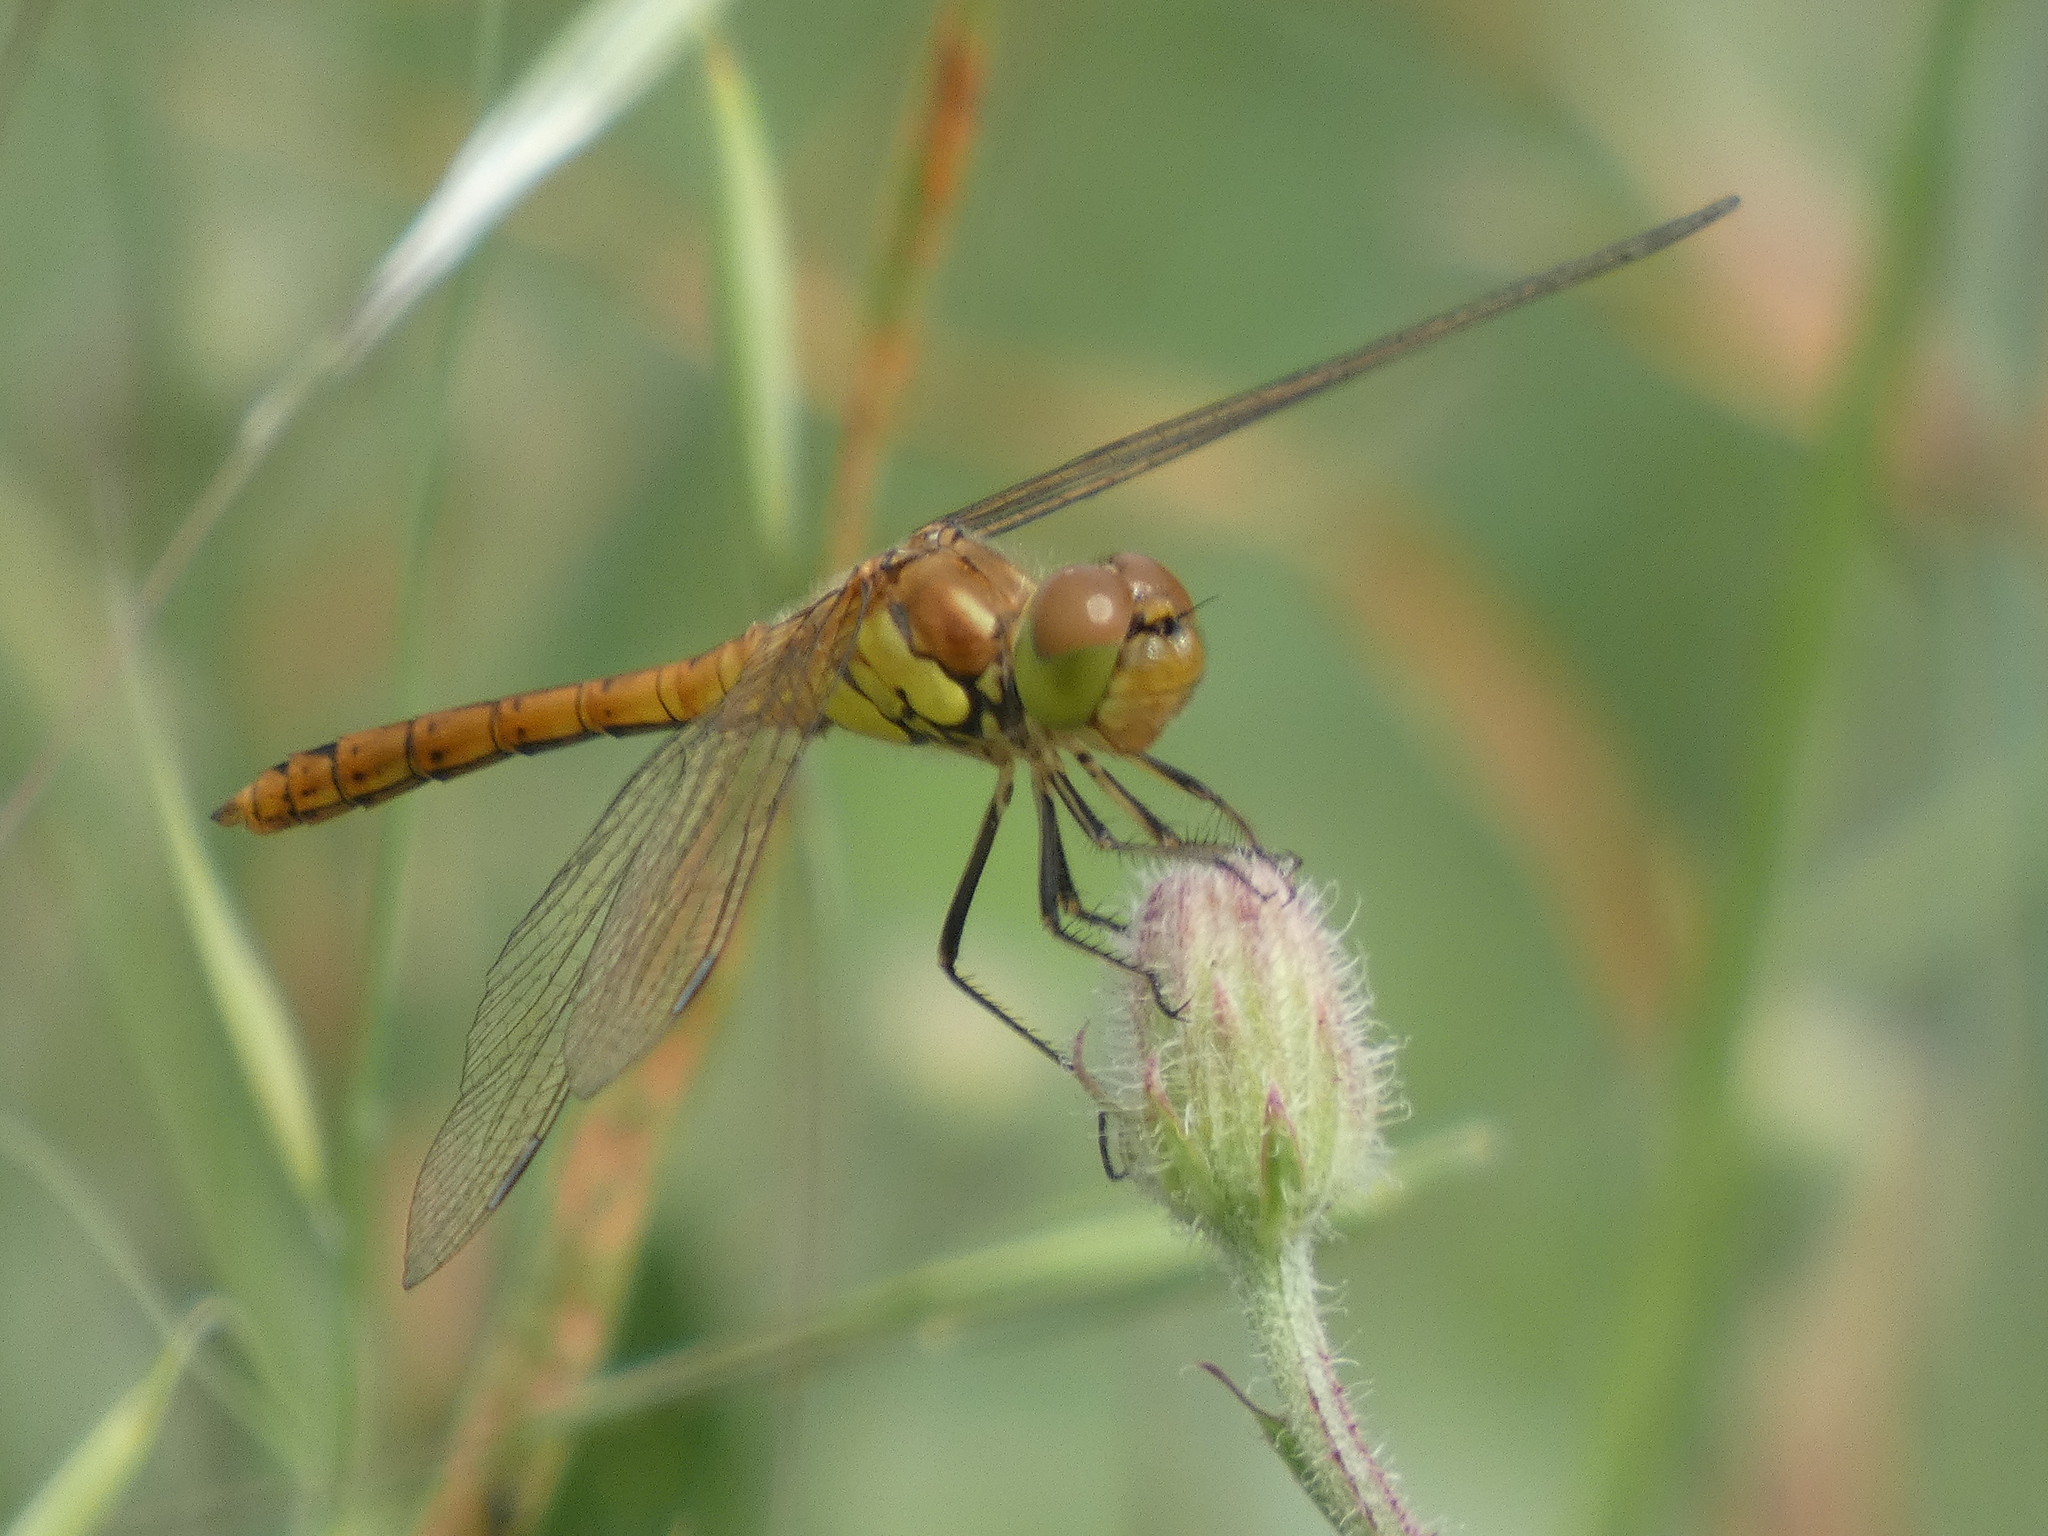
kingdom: Animalia
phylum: Arthropoda
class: Insecta
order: Odonata
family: Libellulidae
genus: Sympetrum
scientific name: Sympetrum striolatum
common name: Common darter
